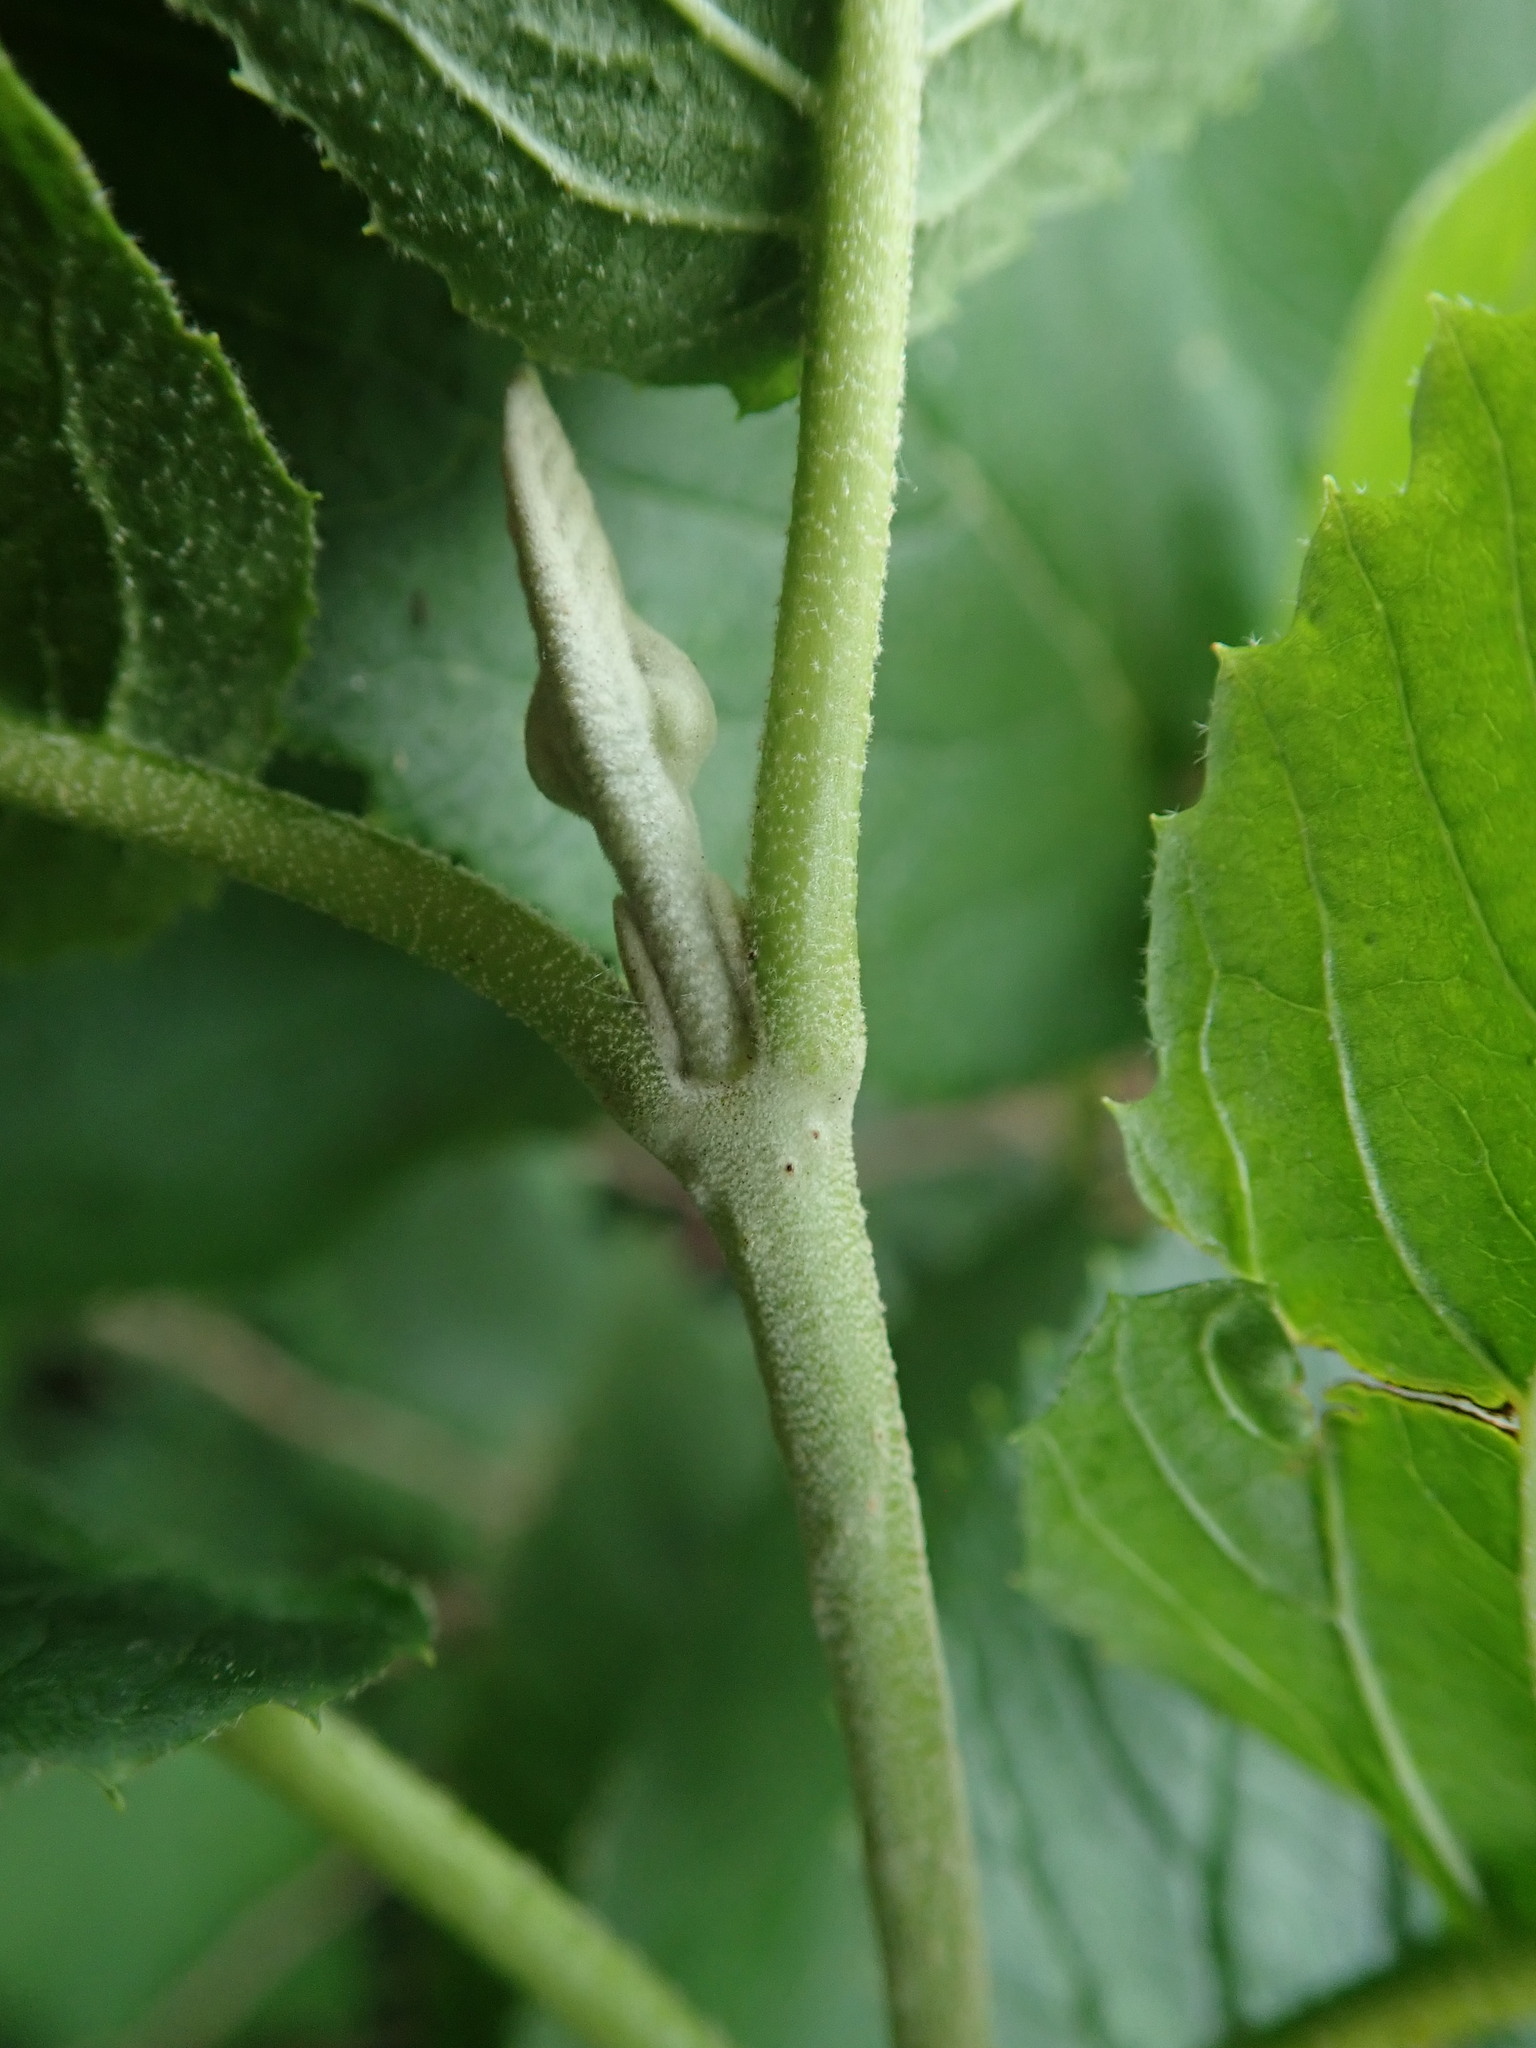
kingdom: Plantae
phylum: Tracheophyta
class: Magnoliopsida
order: Dipsacales
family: Viburnaceae
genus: Viburnum
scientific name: Viburnum lantana
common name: Wayfaring tree
